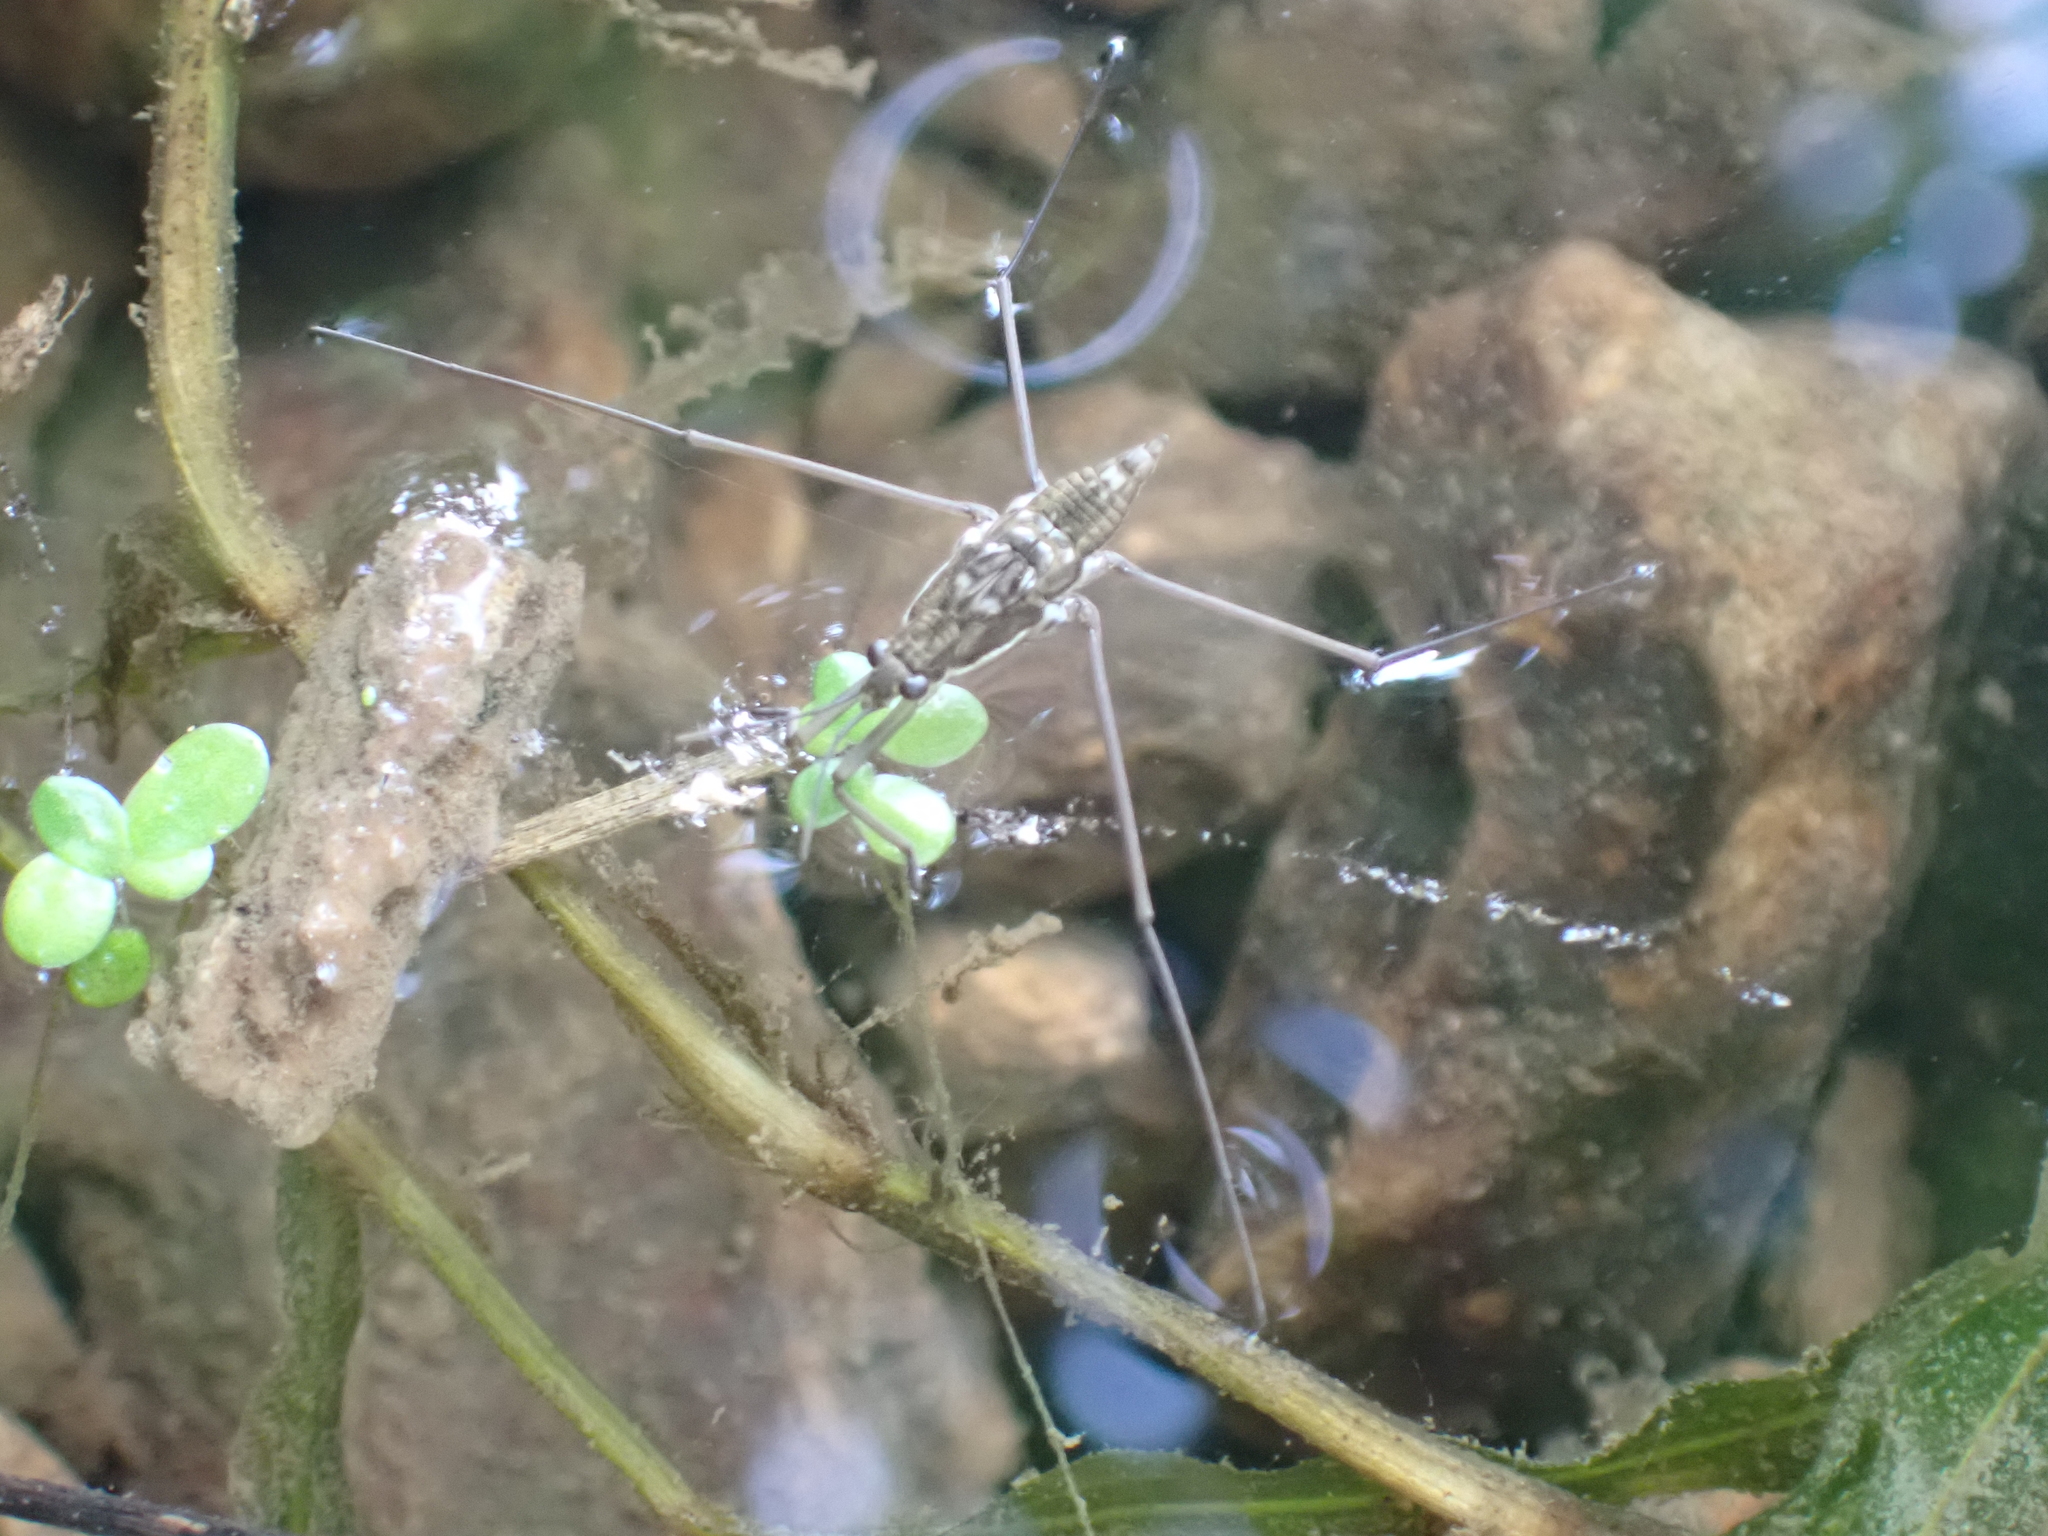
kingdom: Animalia
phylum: Arthropoda
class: Insecta
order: Hemiptera
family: Gerridae
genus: Aquarius
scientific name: Aquarius
